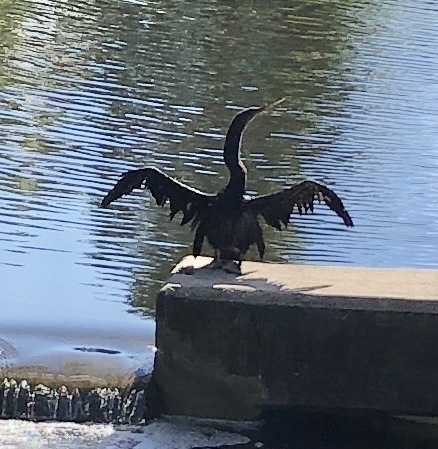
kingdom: Animalia
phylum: Chordata
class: Aves
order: Suliformes
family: Anhingidae
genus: Anhinga
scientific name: Anhinga anhinga
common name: Anhinga
